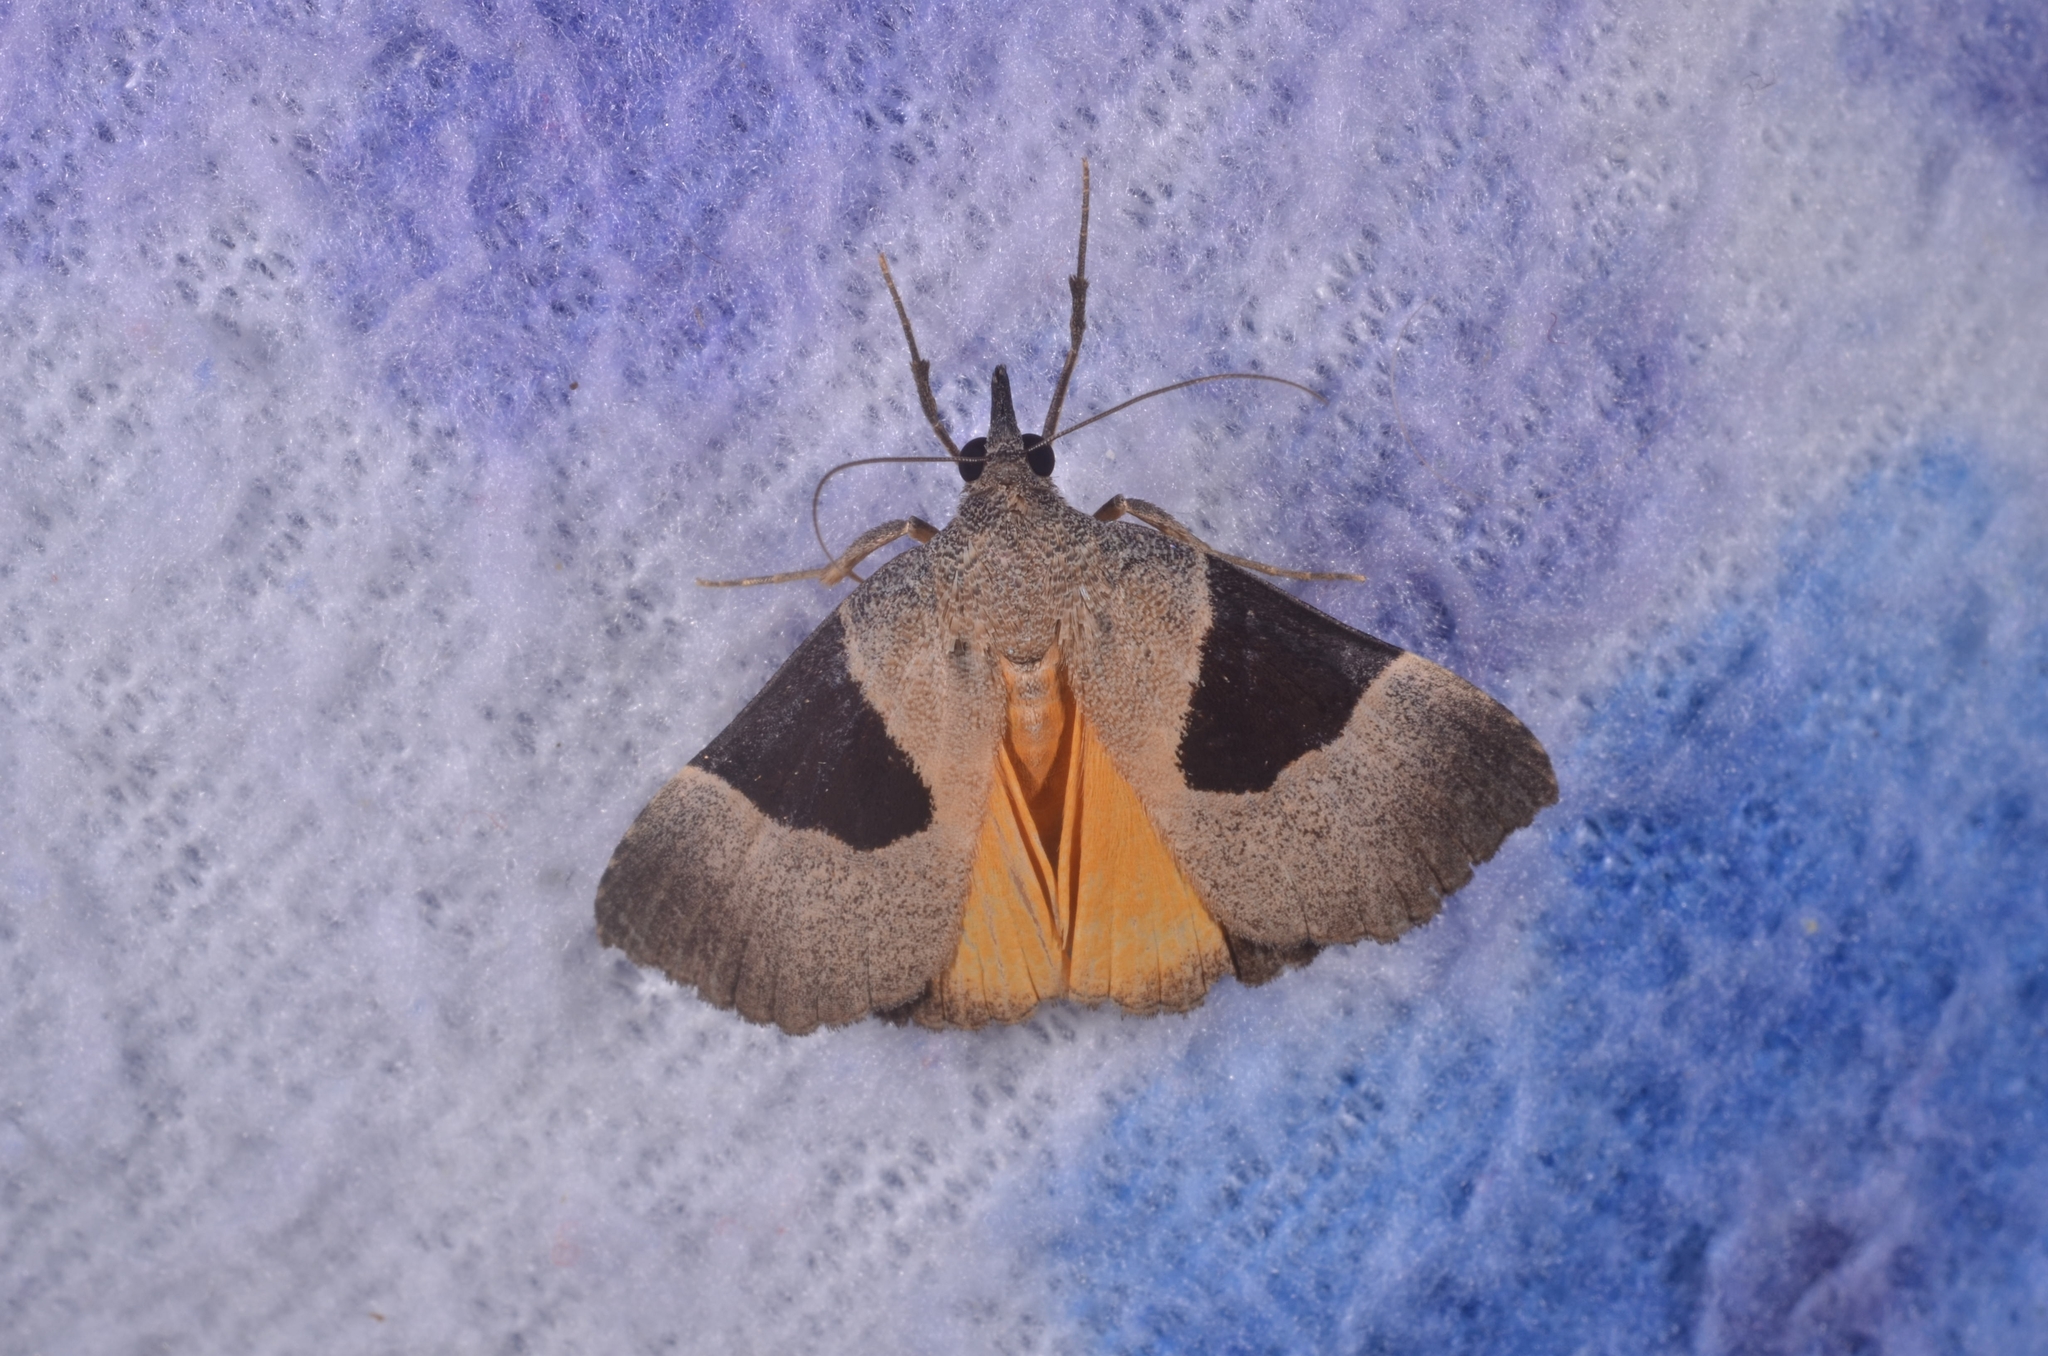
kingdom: Animalia
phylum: Arthropoda
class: Insecta
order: Lepidoptera
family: Erebidae
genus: Hypena
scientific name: Hypena Dichromia sagitta
